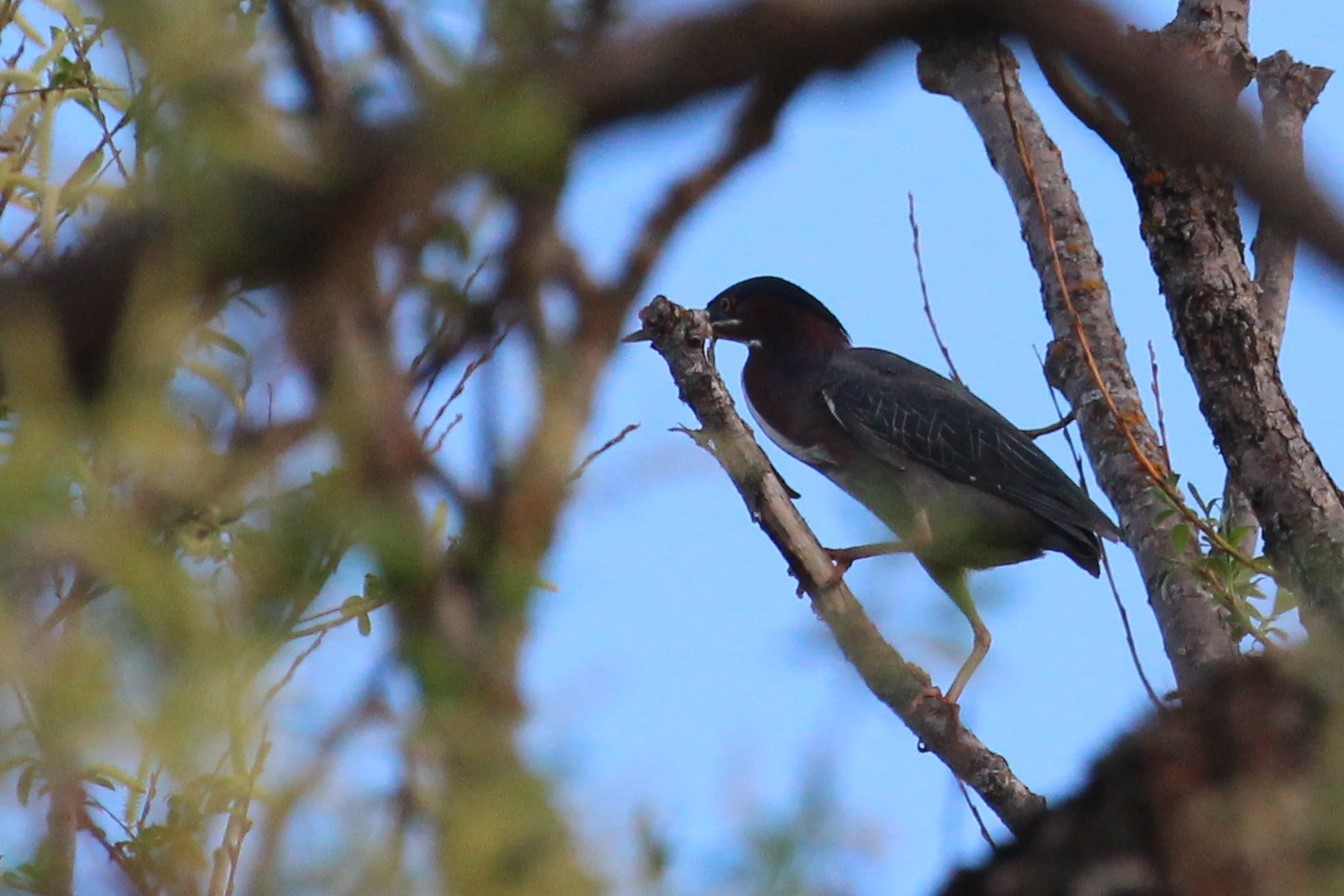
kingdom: Animalia
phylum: Chordata
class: Aves
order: Pelecaniformes
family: Ardeidae
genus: Butorides
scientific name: Butorides virescens
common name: Green heron
